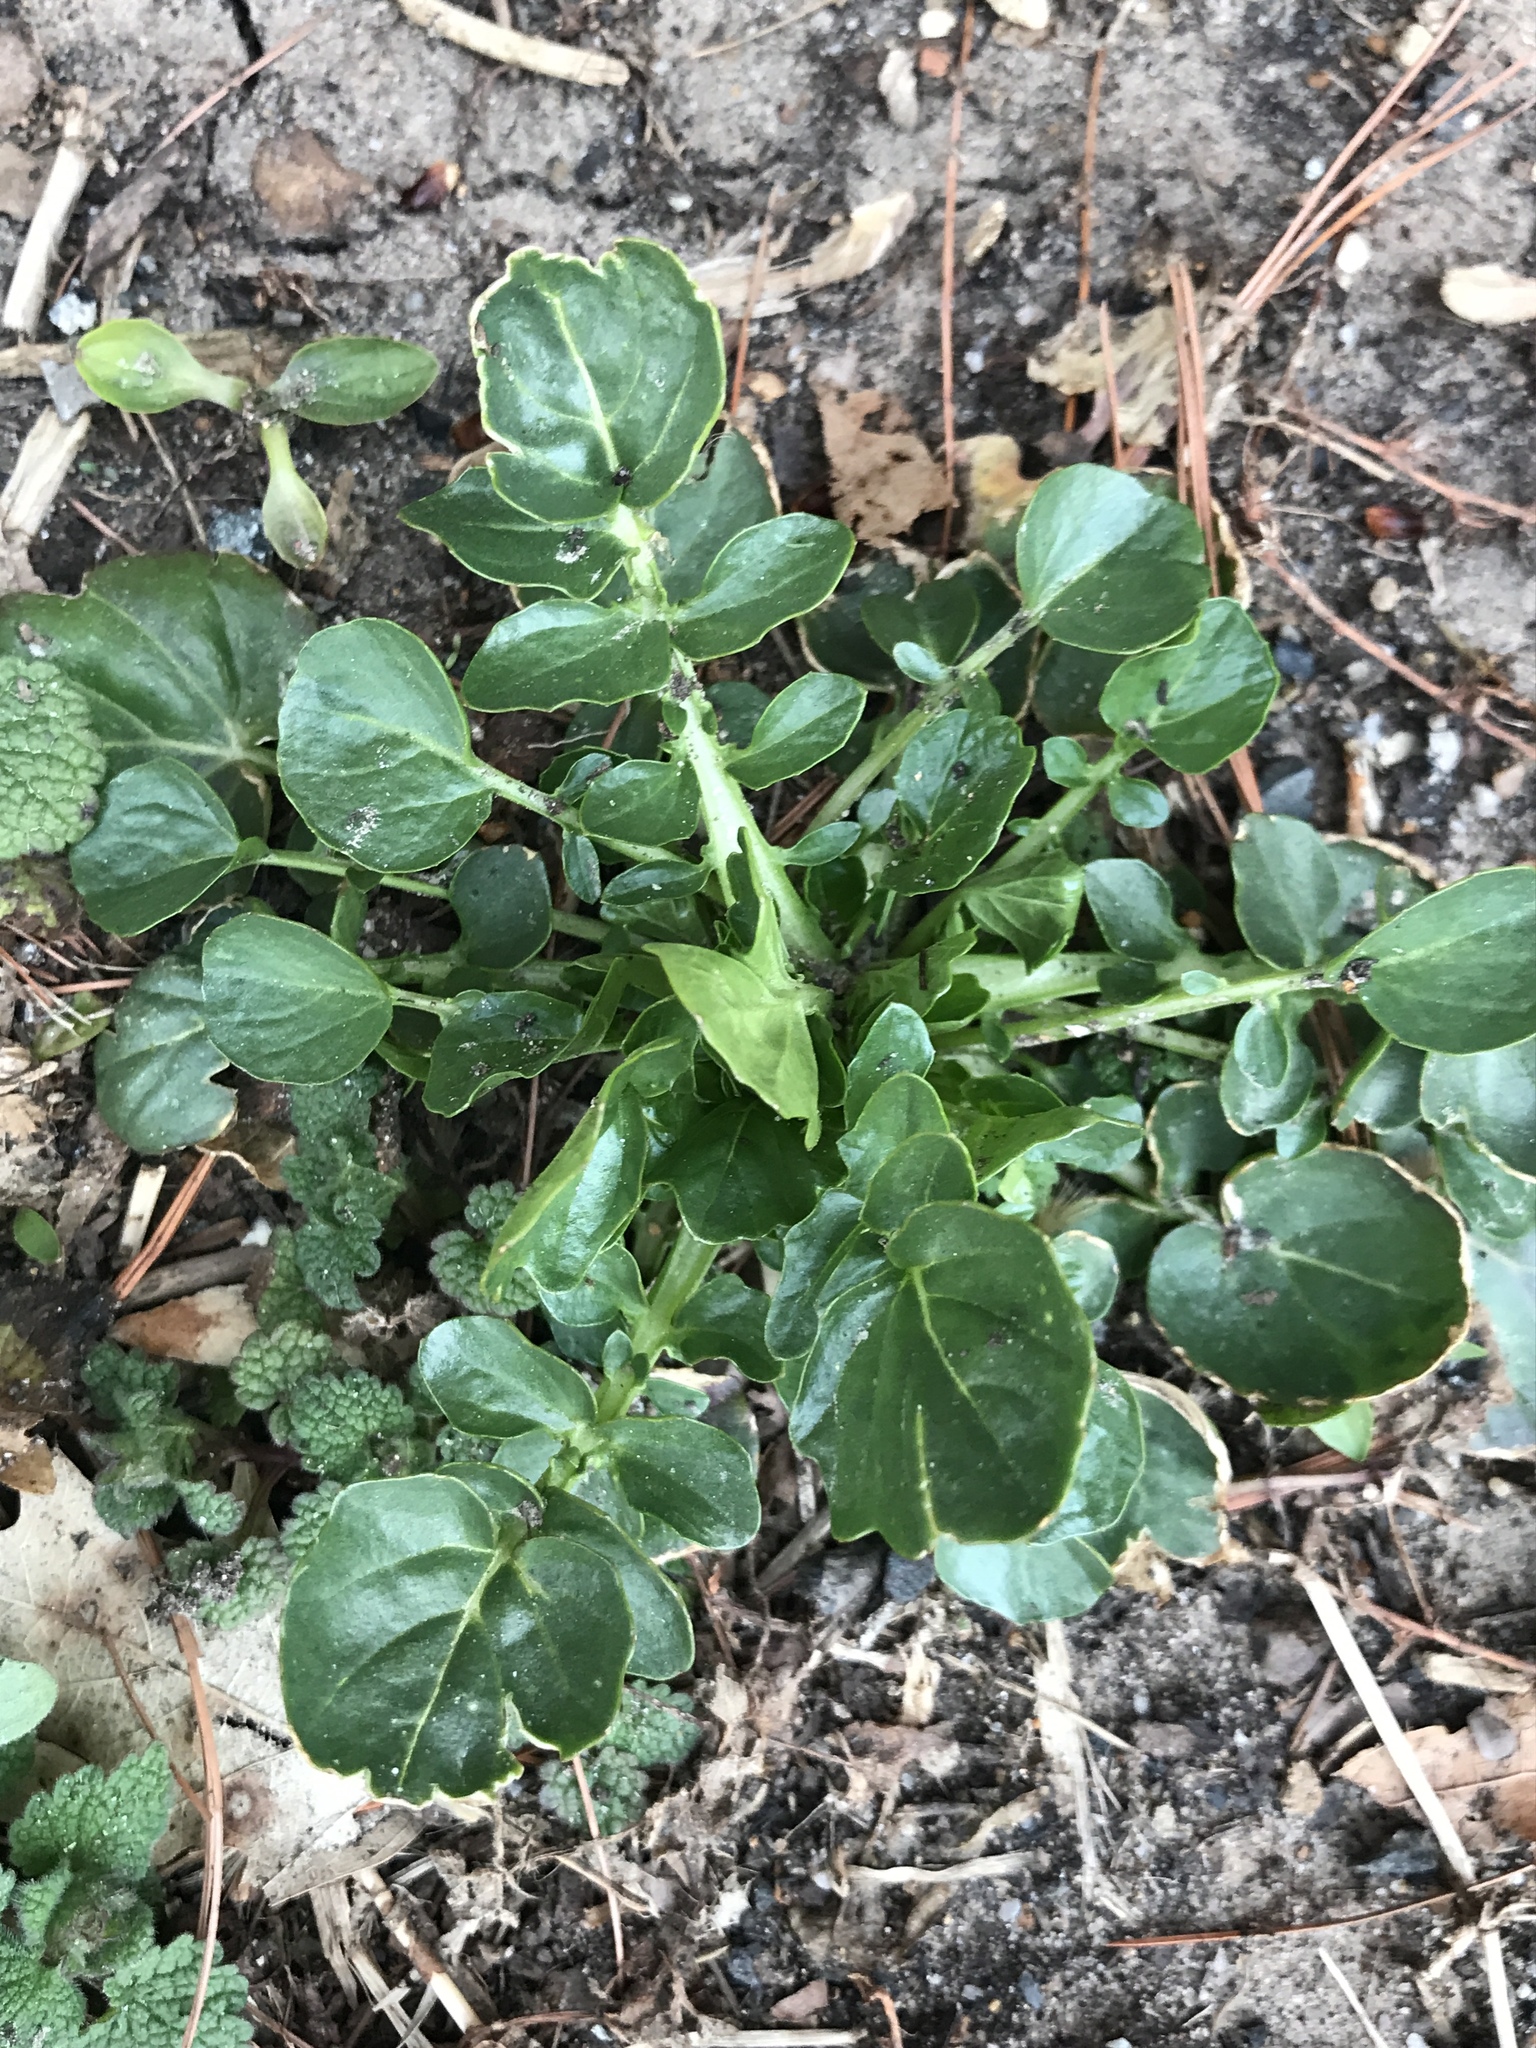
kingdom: Plantae
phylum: Tracheophyta
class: Magnoliopsida
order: Brassicales
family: Brassicaceae
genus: Barbarea
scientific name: Barbarea vulgaris
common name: Cressy-greens
